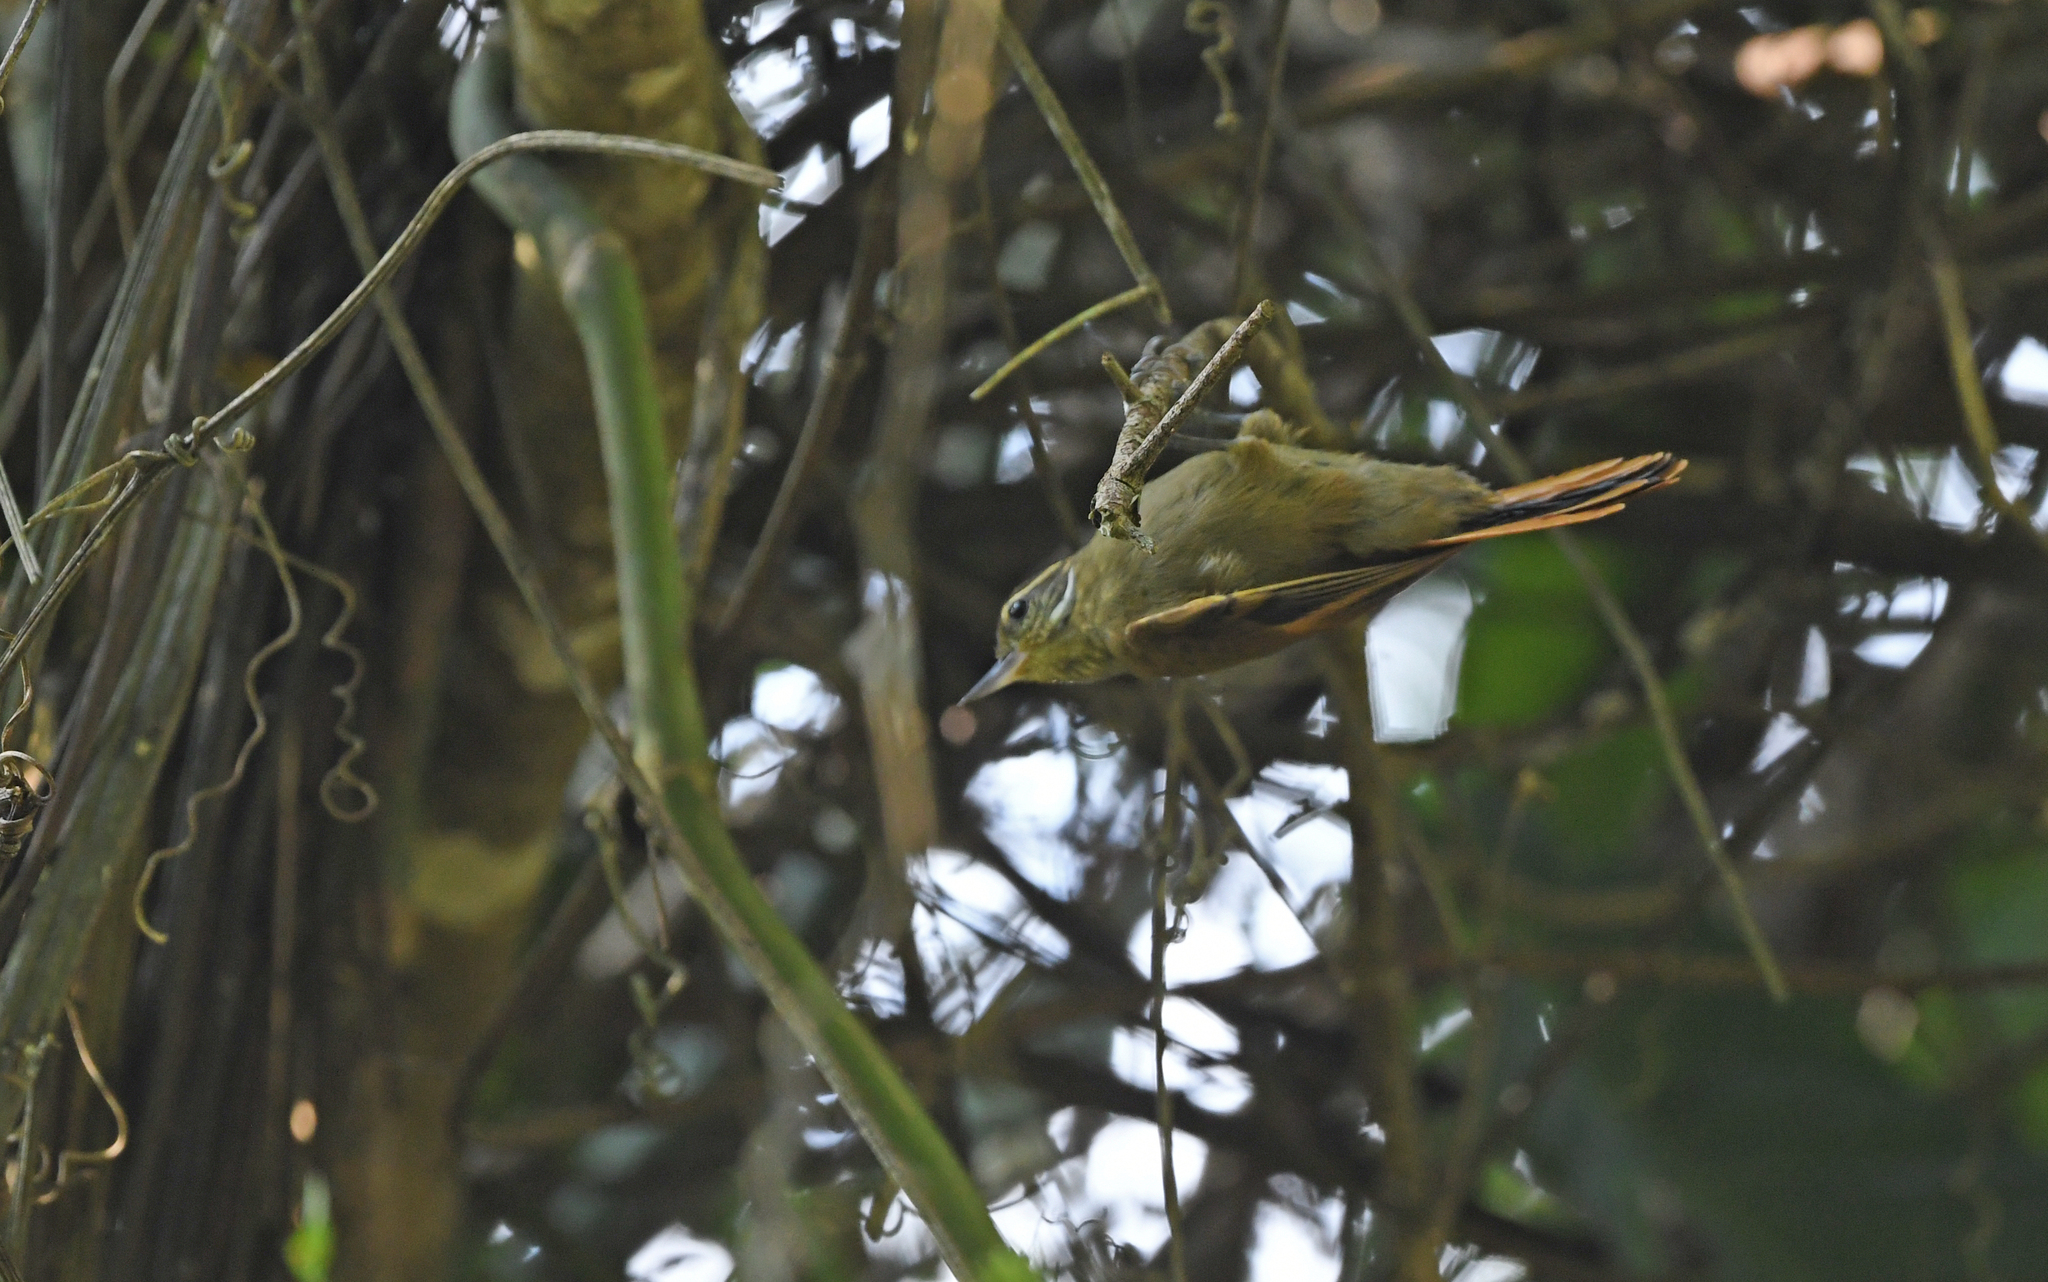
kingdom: Animalia
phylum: Chordata
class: Aves
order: Passeriformes
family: Furnariidae
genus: Xenops
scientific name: Xenops minutus
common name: Plain xenops
